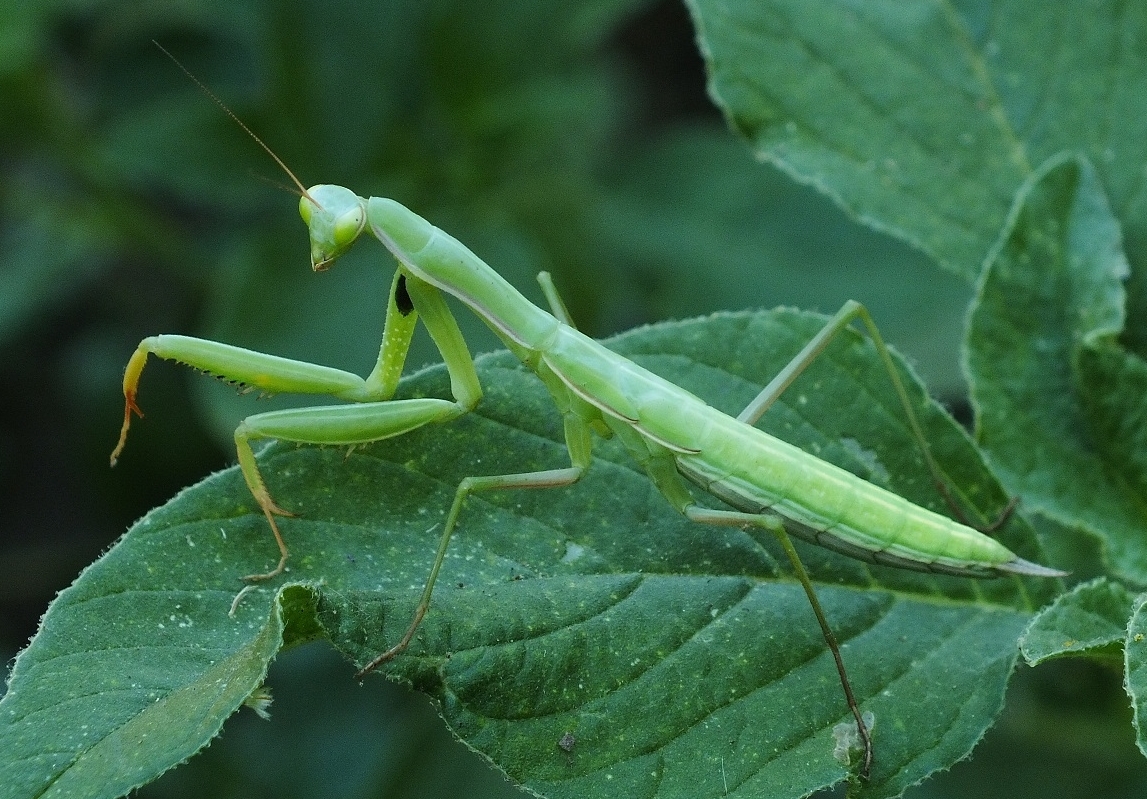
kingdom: Animalia
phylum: Arthropoda
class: Insecta
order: Mantodea
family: Mantidae
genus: Mantis
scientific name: Mantis religiosa
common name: Praying mantis
